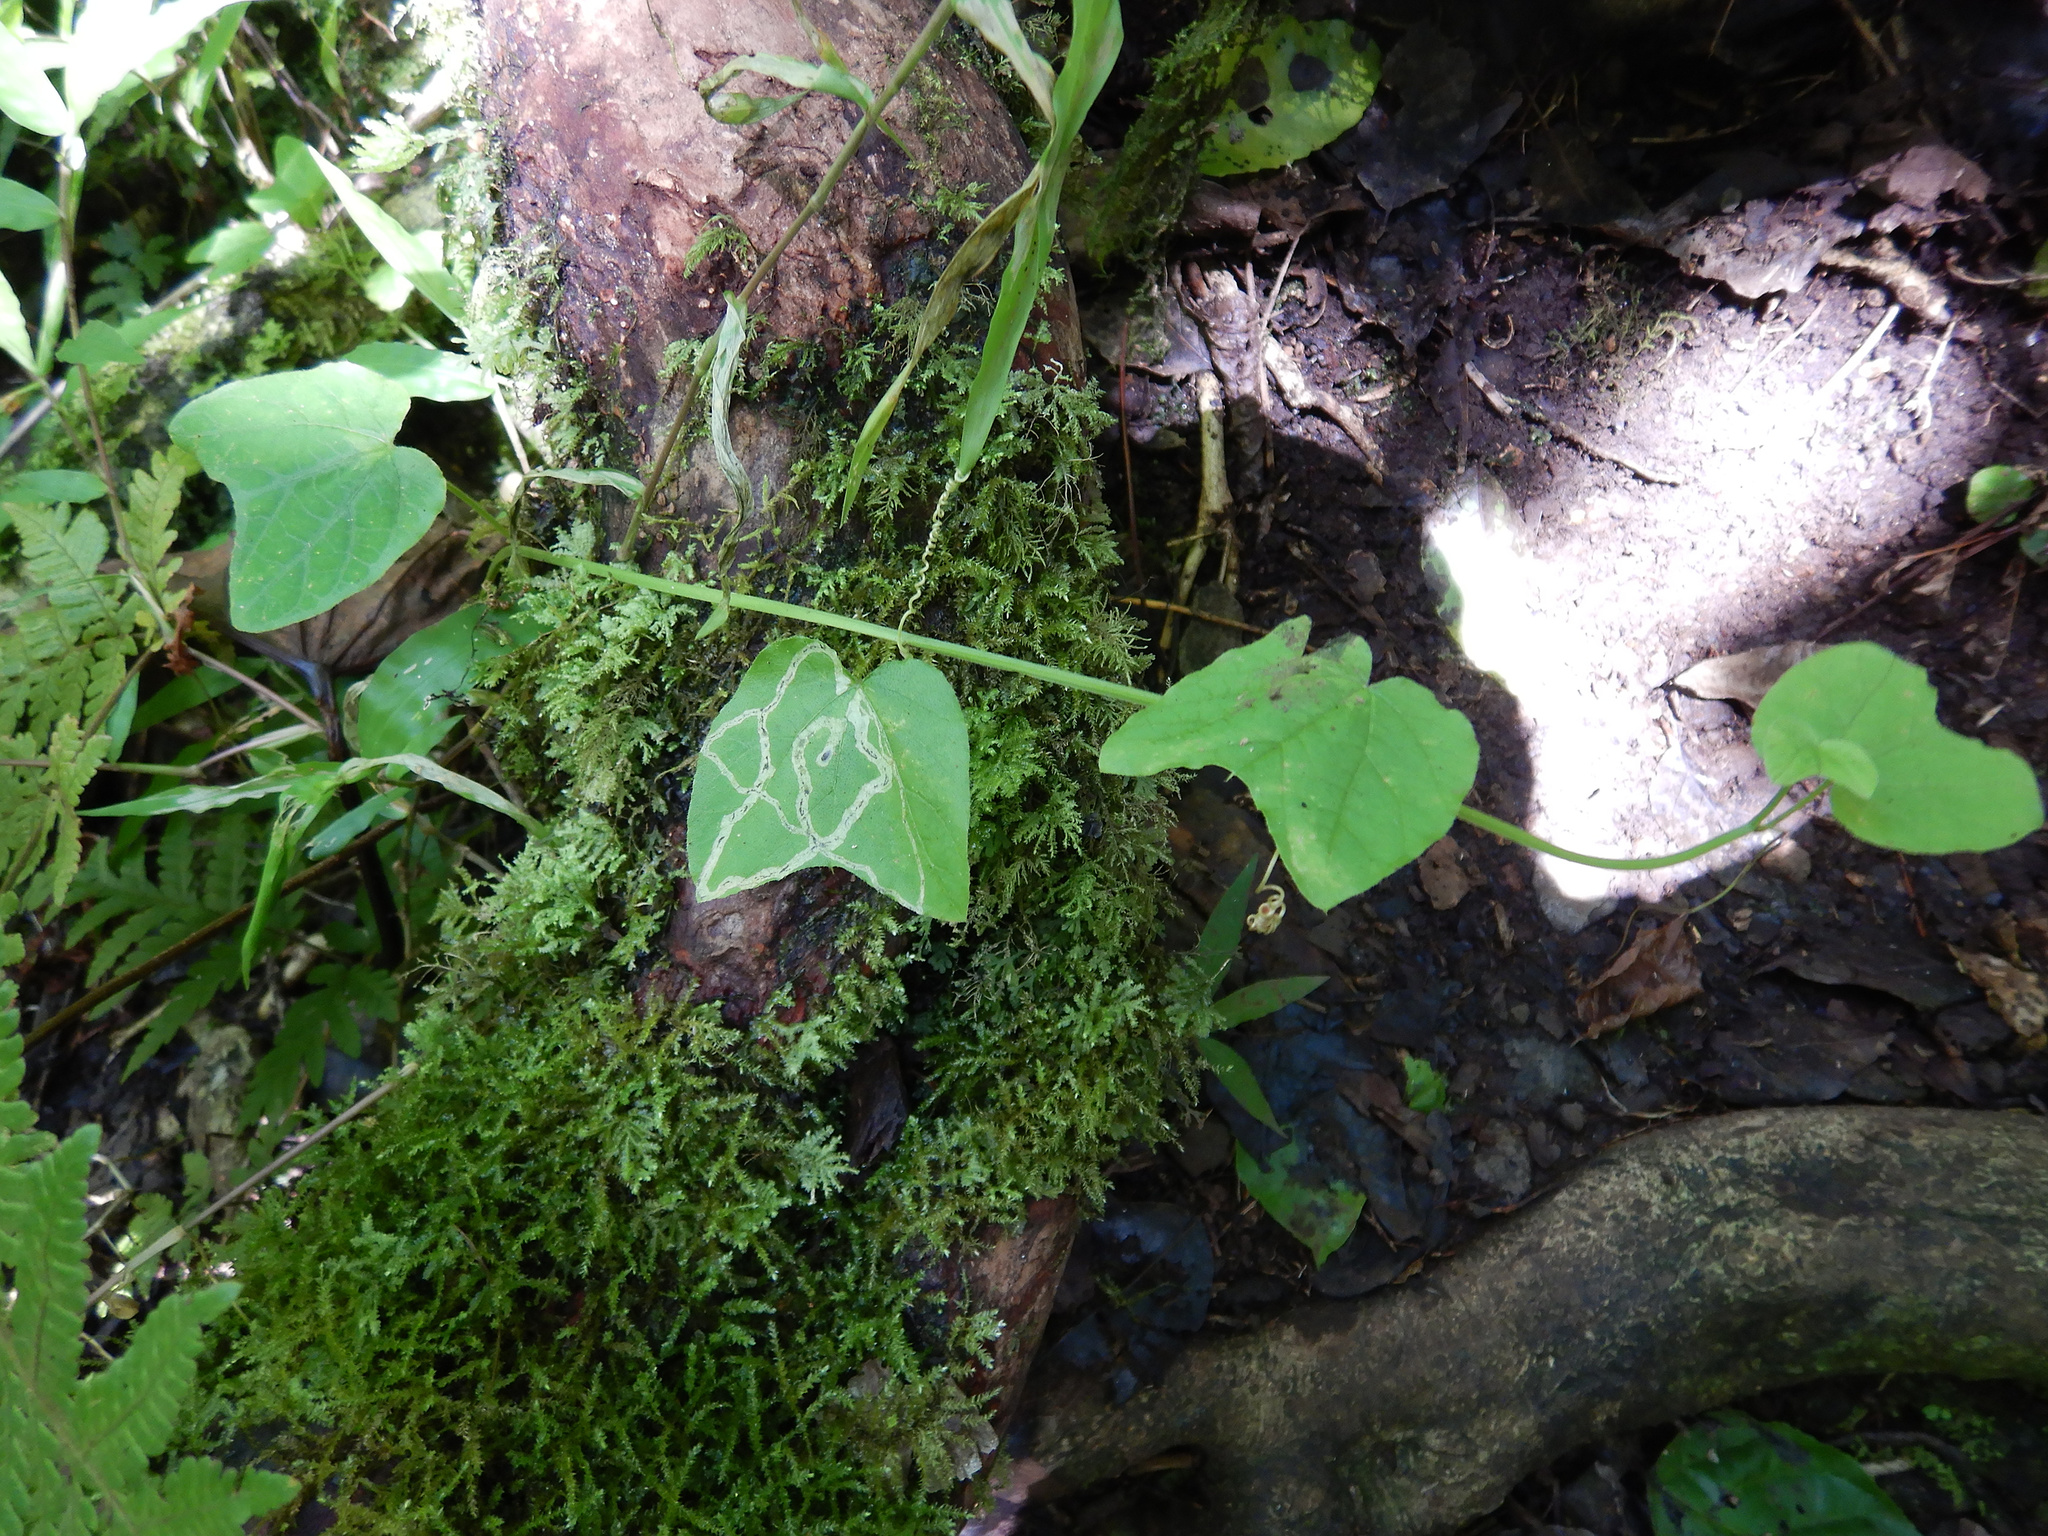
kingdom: Plantae
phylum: Tracheophyta
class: Magnoliopsida
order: Malpighiales
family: Passifloraceae
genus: Passiflora
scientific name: Passiflora rubra
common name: Snakeberry vine
